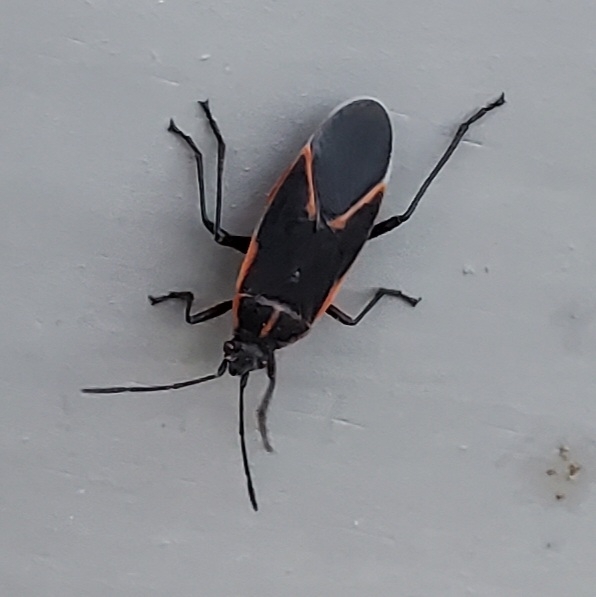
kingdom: Animalia
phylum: Arthropoda
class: Insecta
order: Hemiptera
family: Rhopalidae
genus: Boisea
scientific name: Boisea trivittata
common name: Boxelder bug
